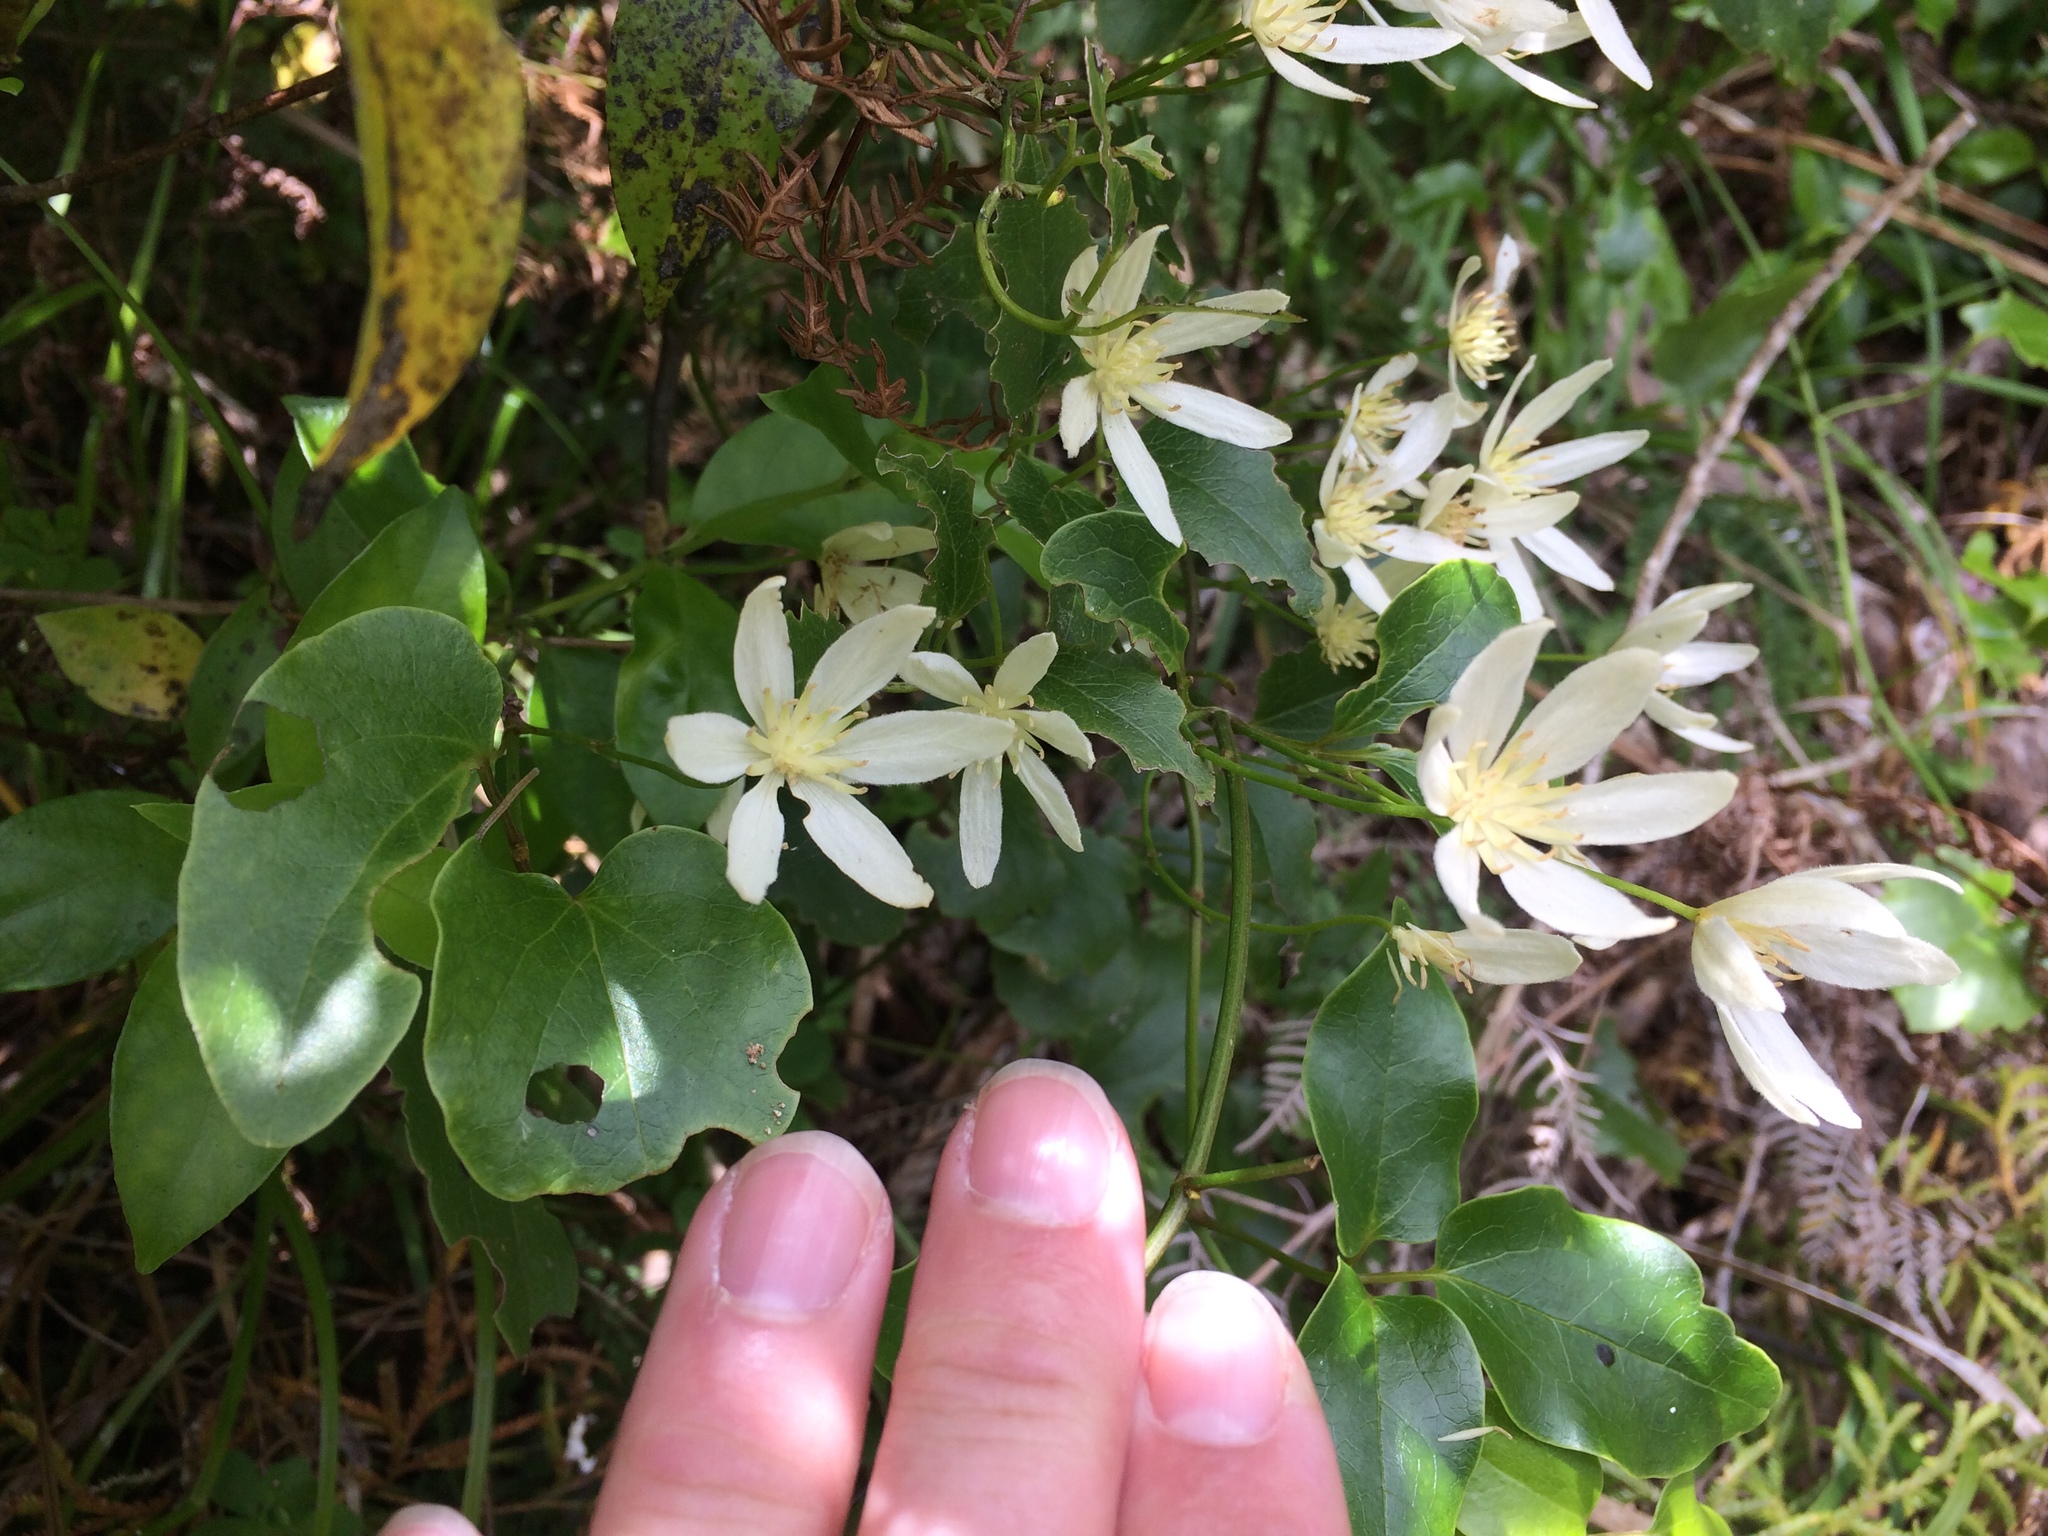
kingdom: Plantae
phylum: Tracheophyta
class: Magnoliopsida
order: Ranunculales
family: Ranunculaceae
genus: Clematis
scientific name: Clematis forsteri
